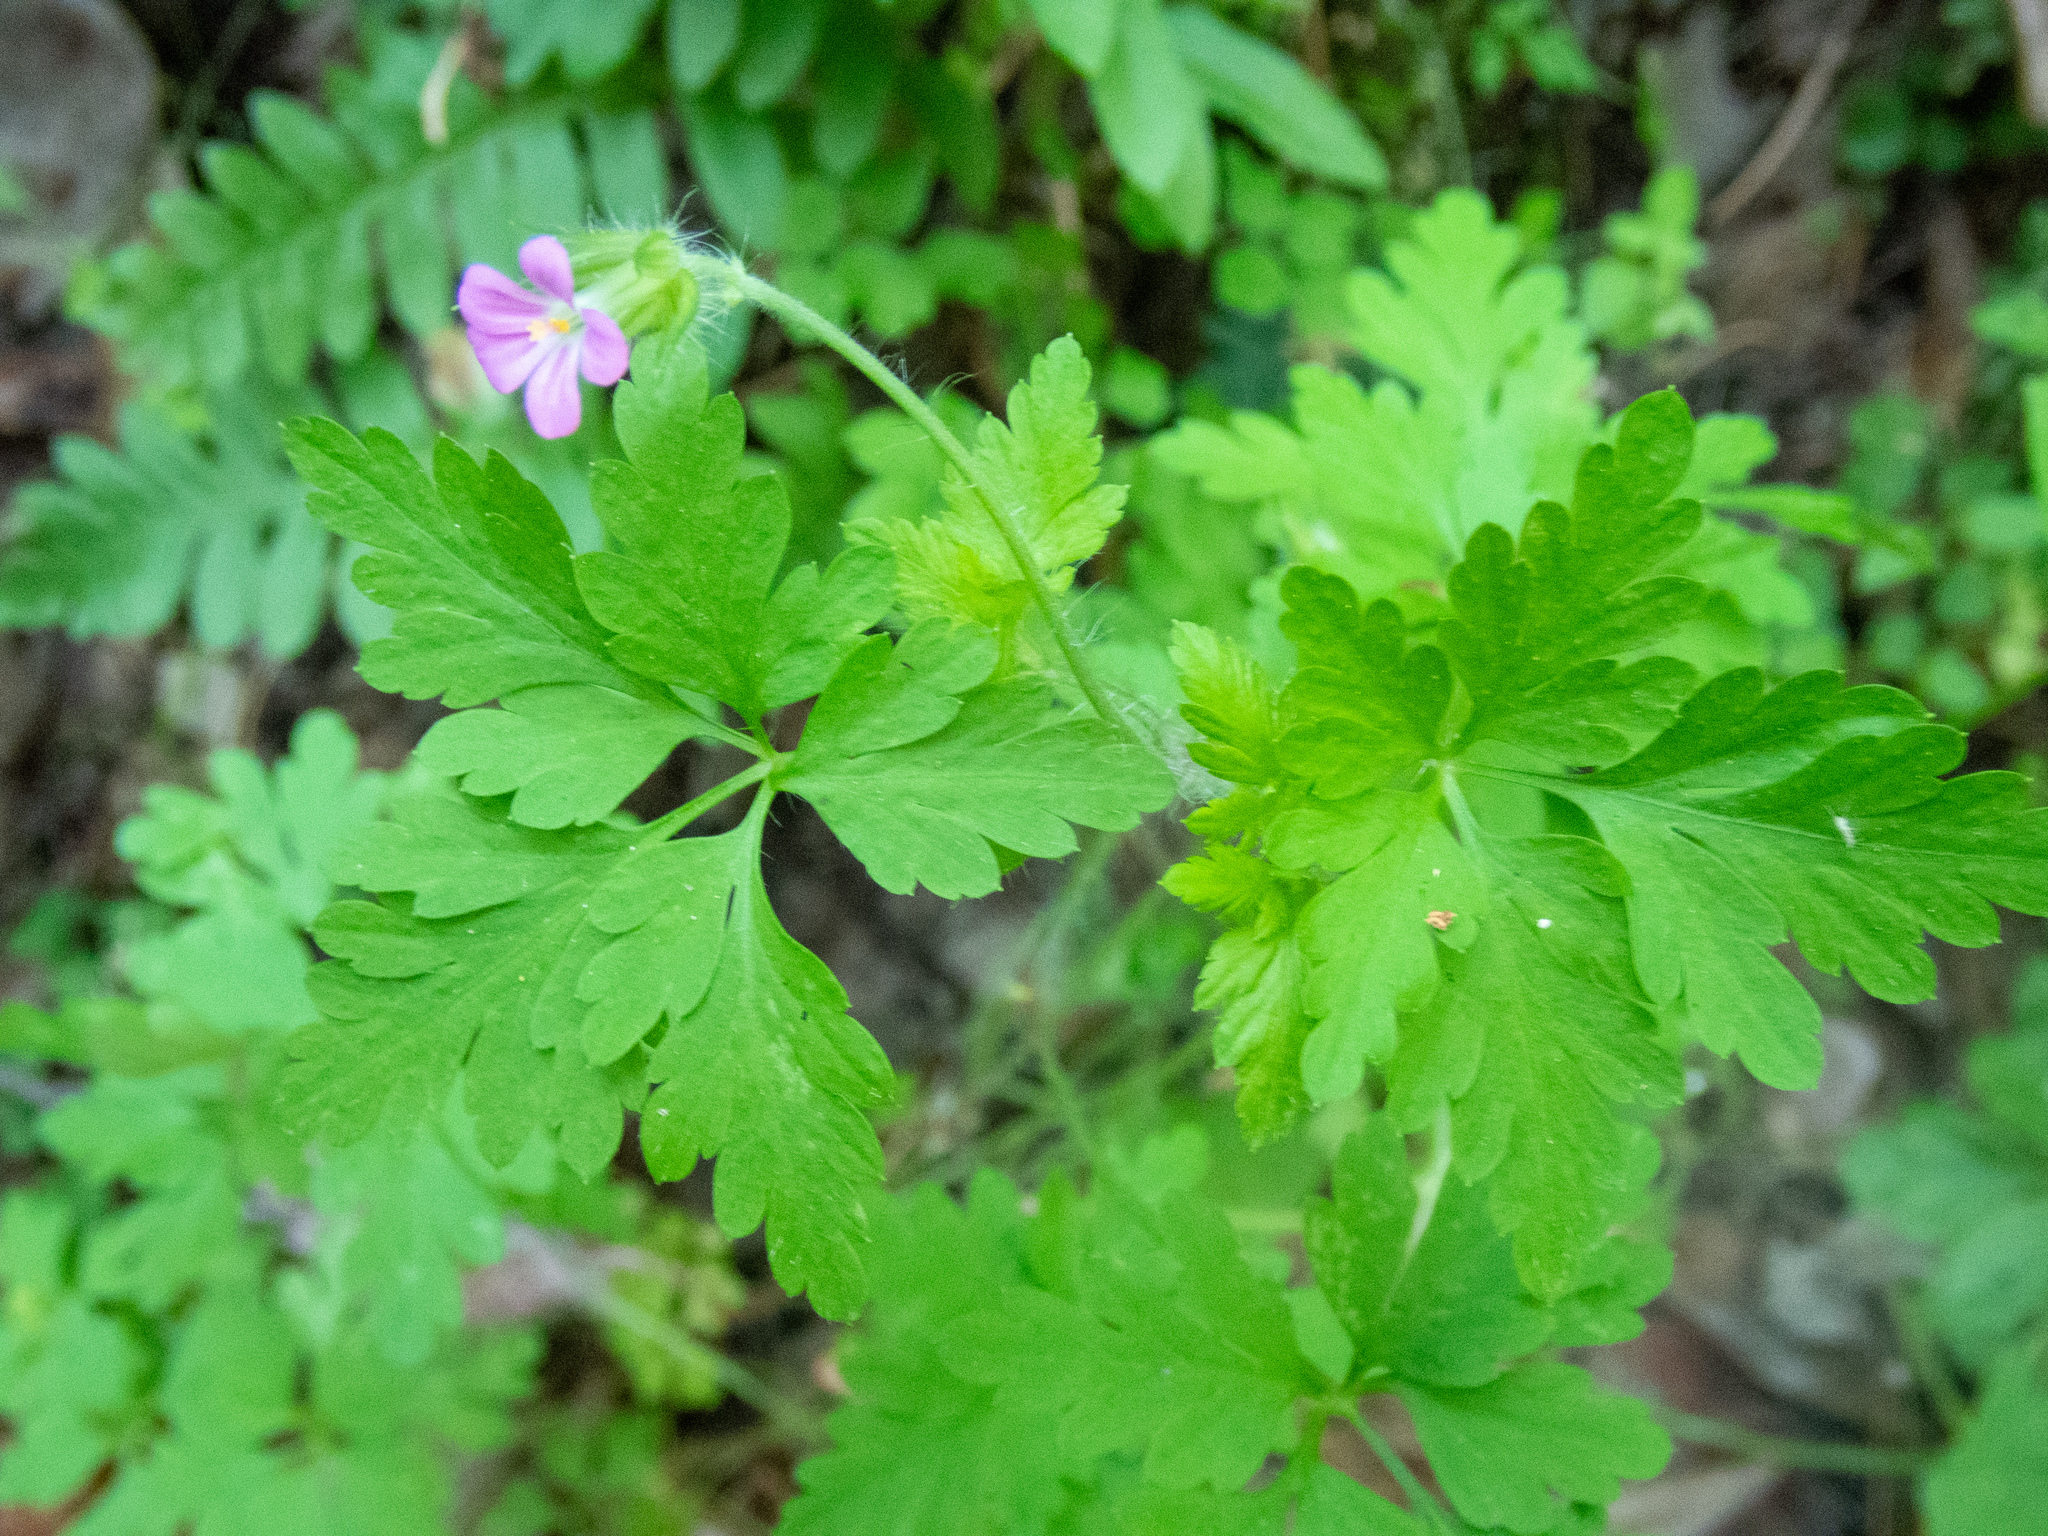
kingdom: Plantae
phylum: Tracheophyta
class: Magnoliopsida
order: Geraniales
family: Geraniaceae
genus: Geranium
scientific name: Geranium purpureum
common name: Little-robin
